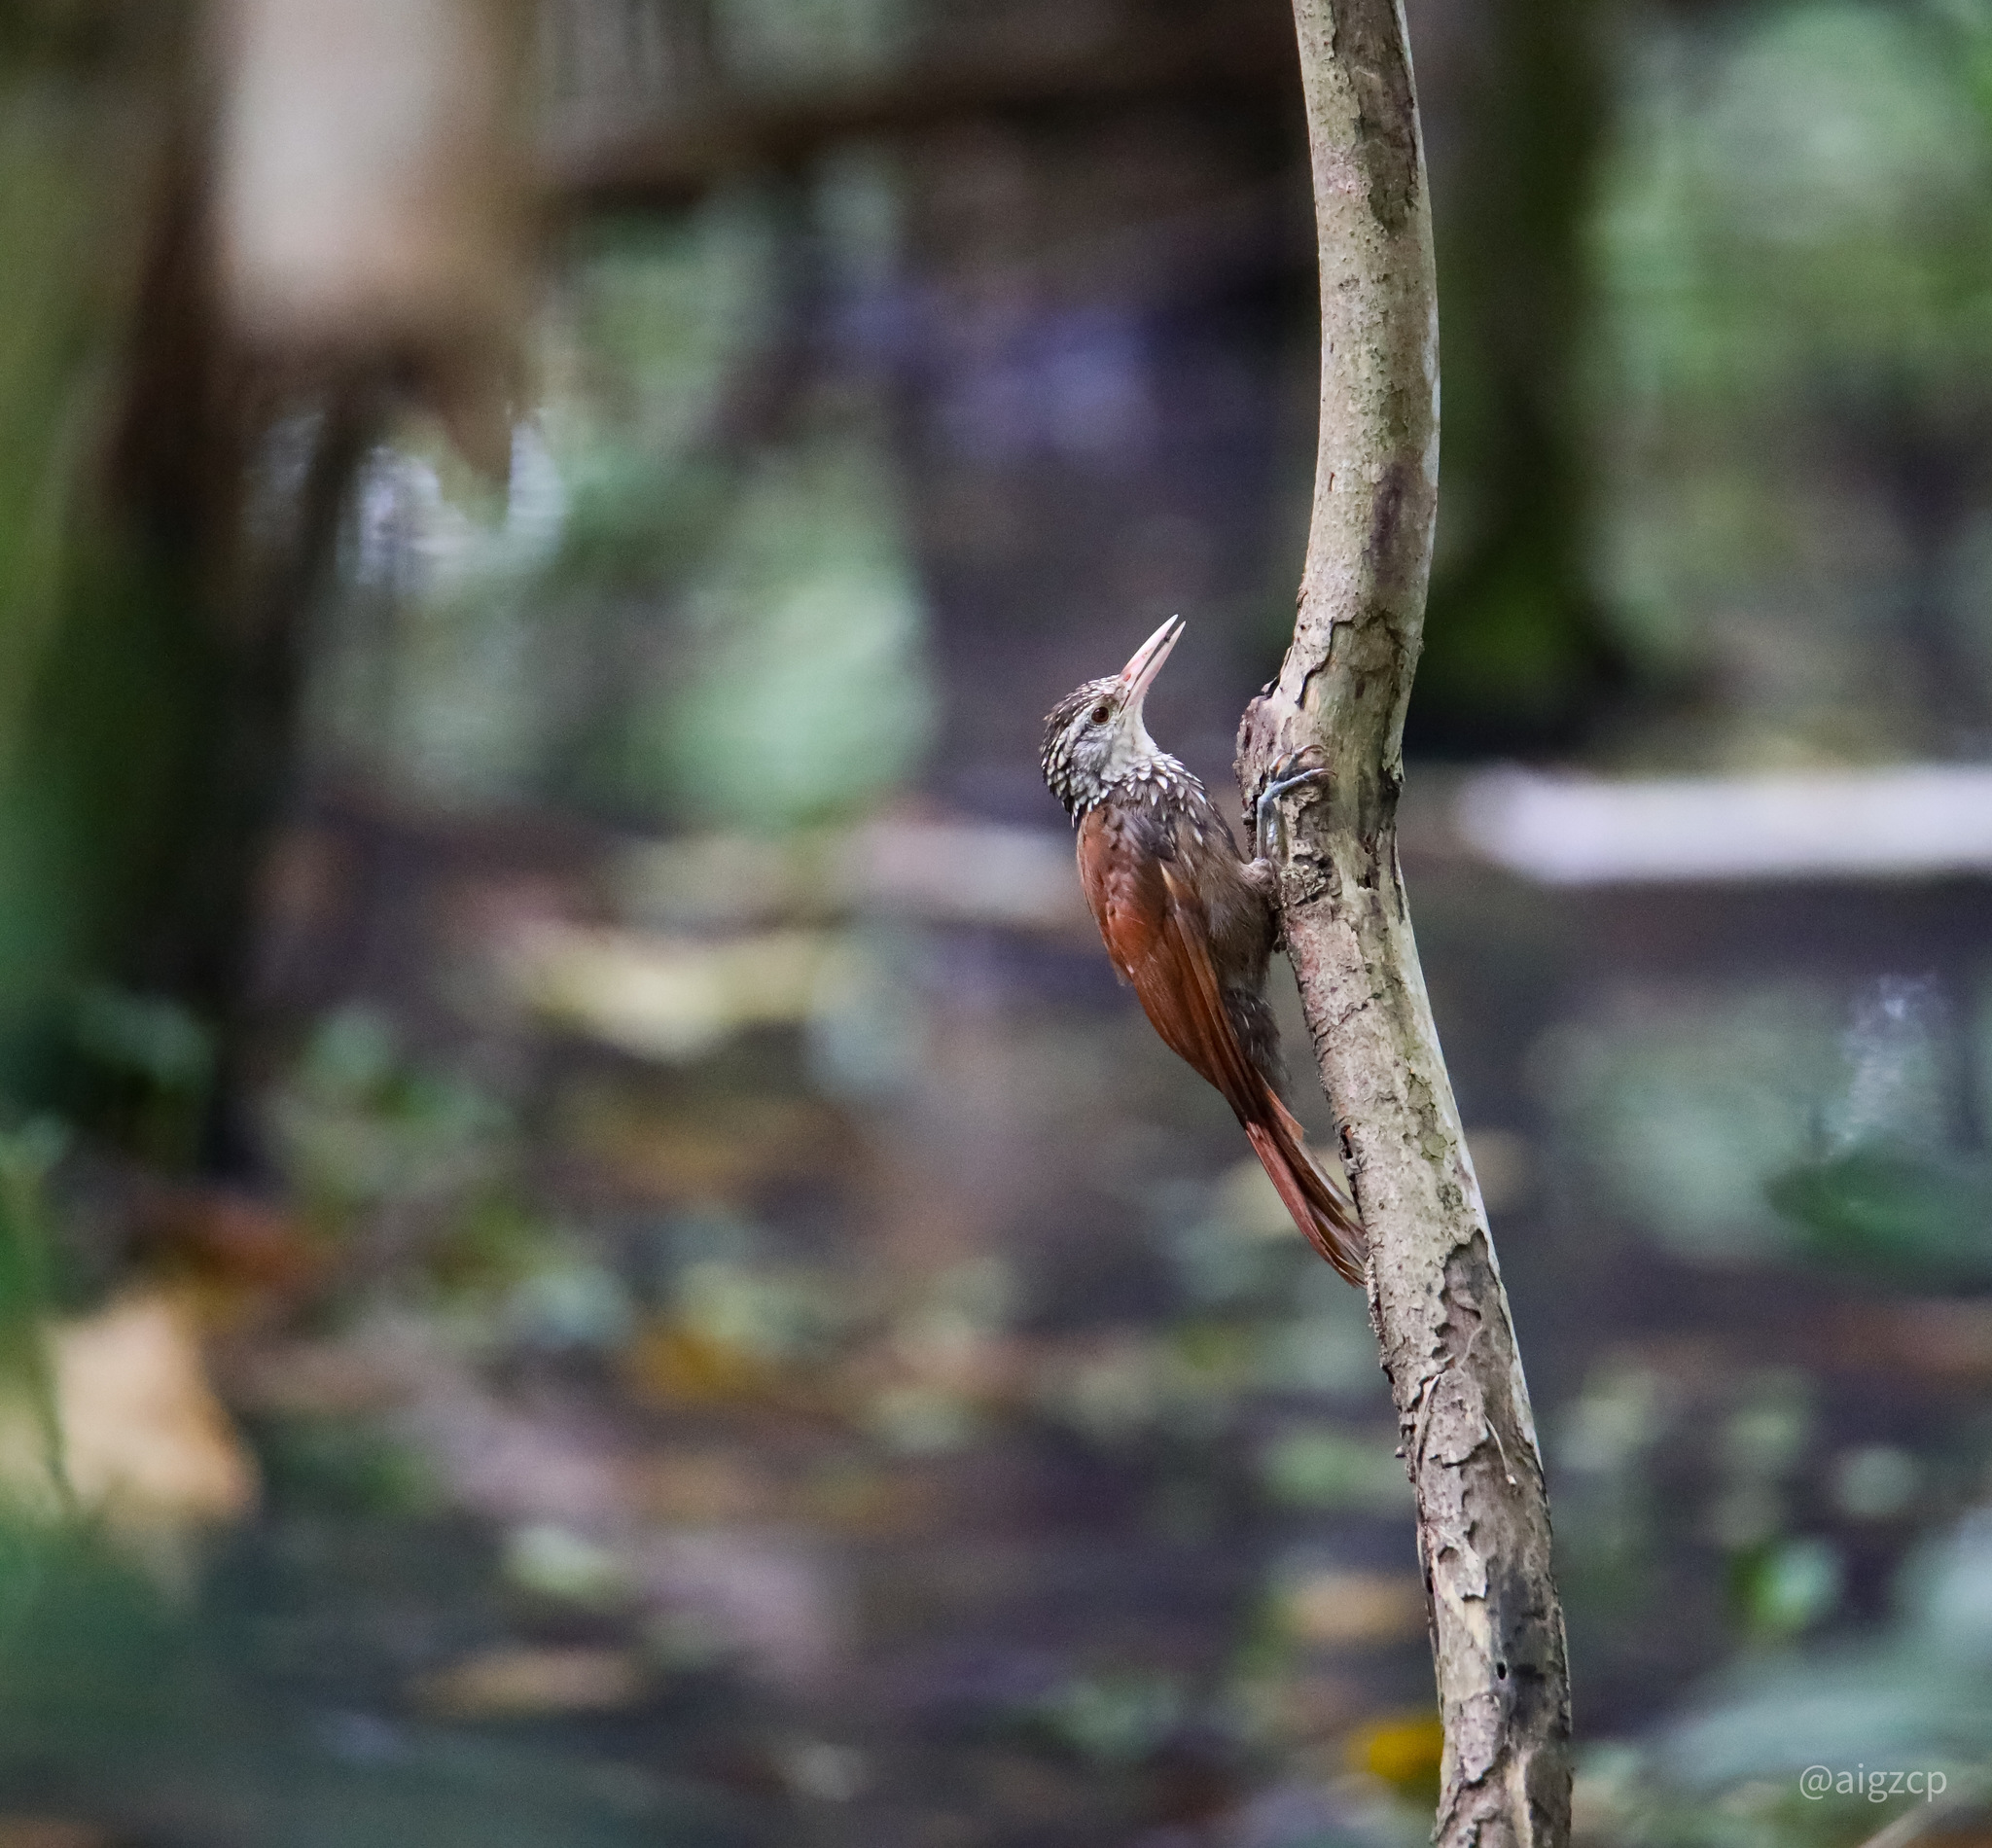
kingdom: Animalia
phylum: Chordata
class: Aves
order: Passeriformes
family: Furnariidae
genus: Xiphorhynchus
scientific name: Xiphorhynchus picus
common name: Straight-billed woodcreeper
